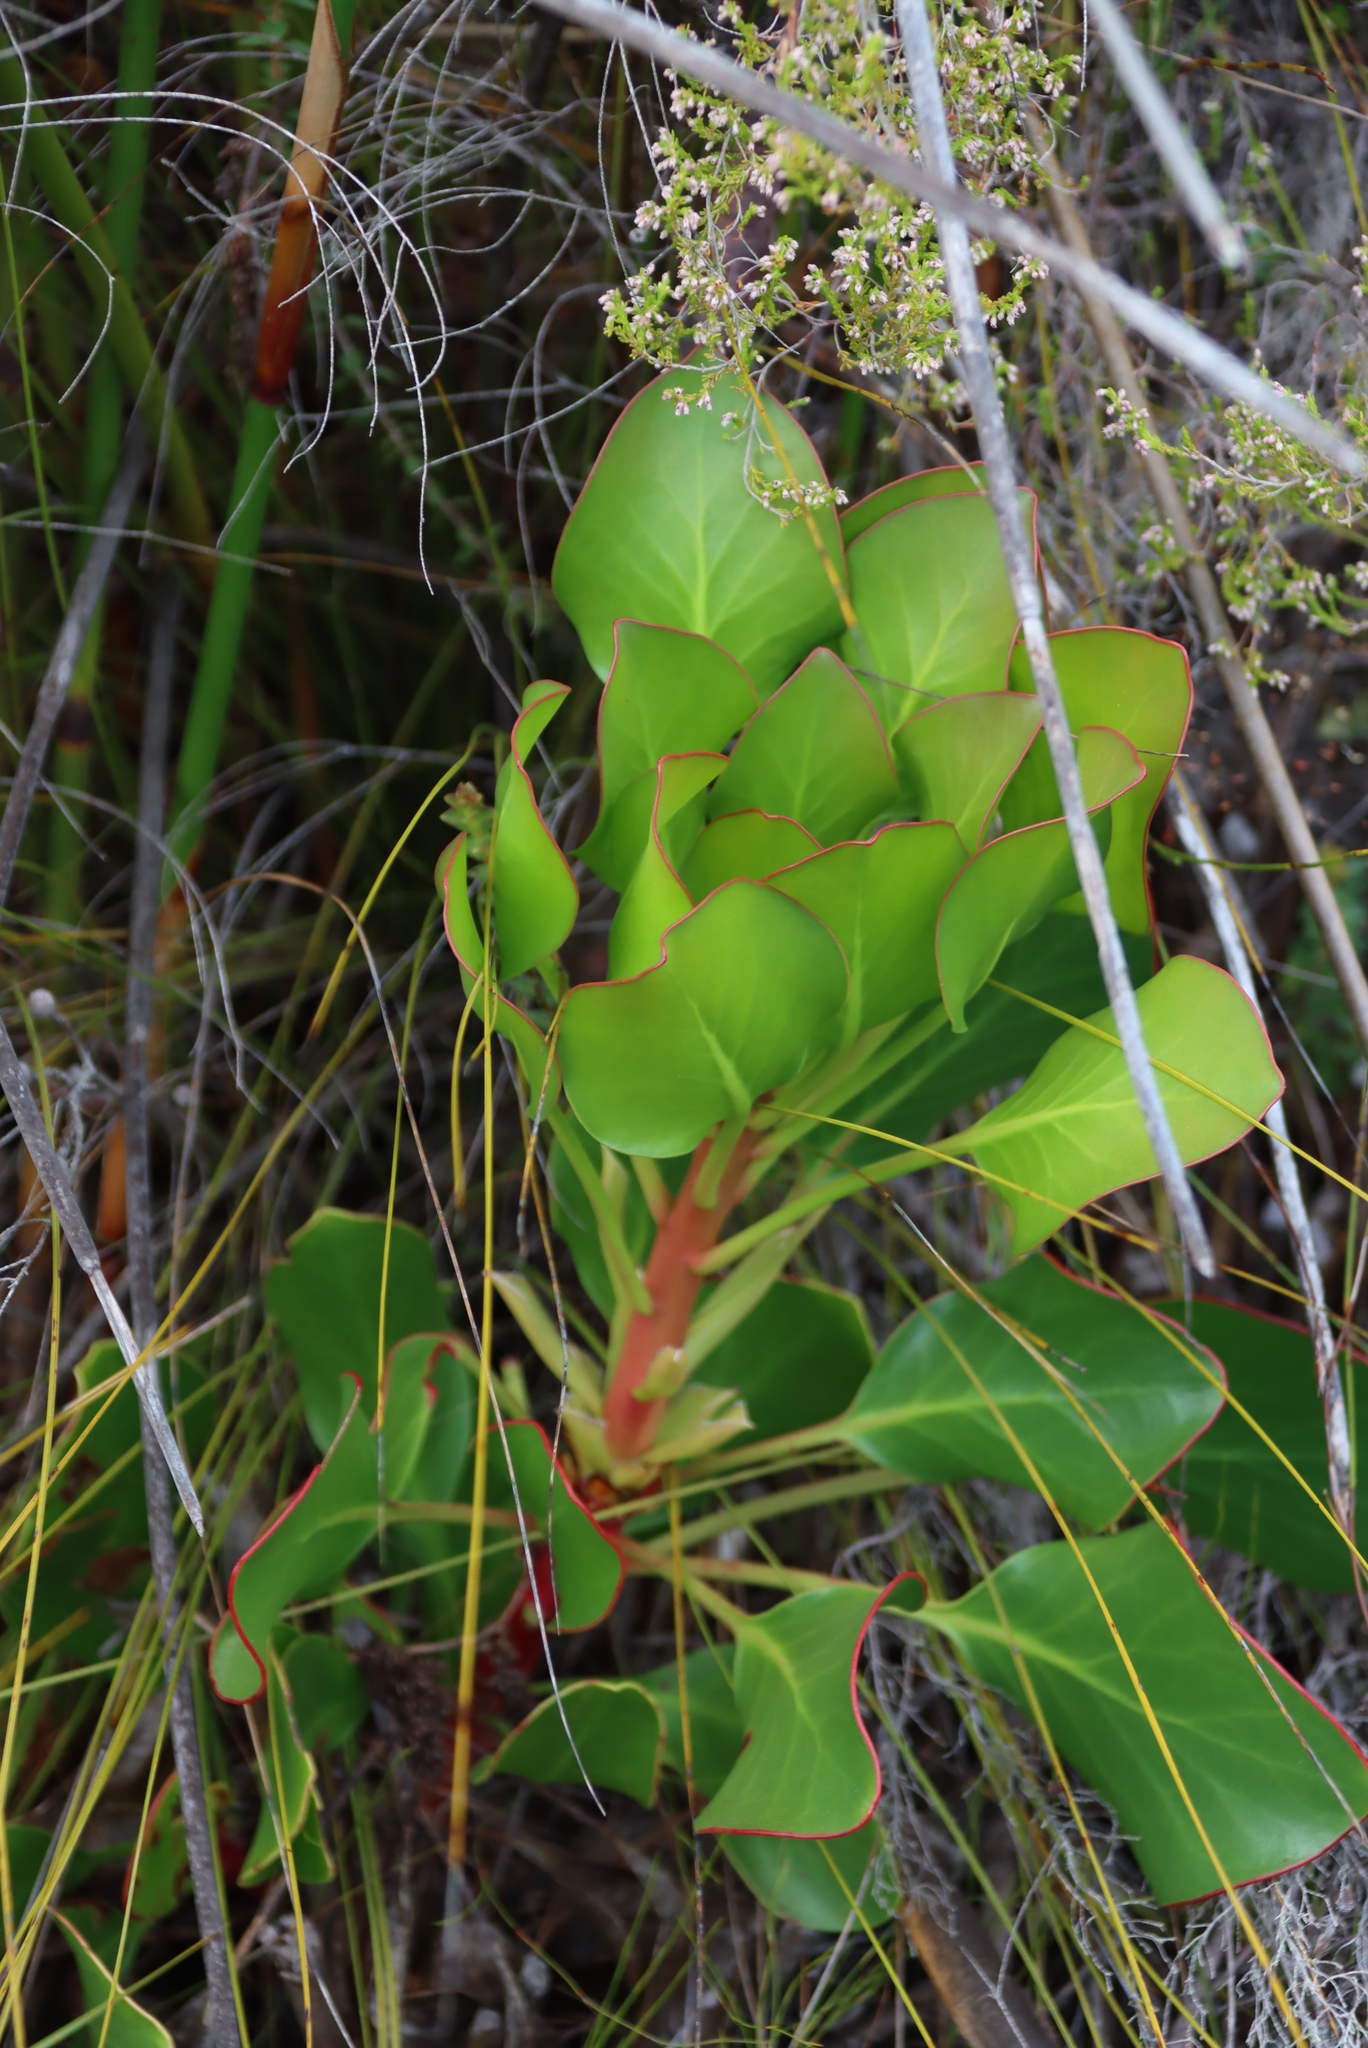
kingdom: Plantae
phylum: Tracheophyta
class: Magnoliopsida
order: Proteales
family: Proteaceae
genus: Protea
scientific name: Protea cynaroides
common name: King protea
